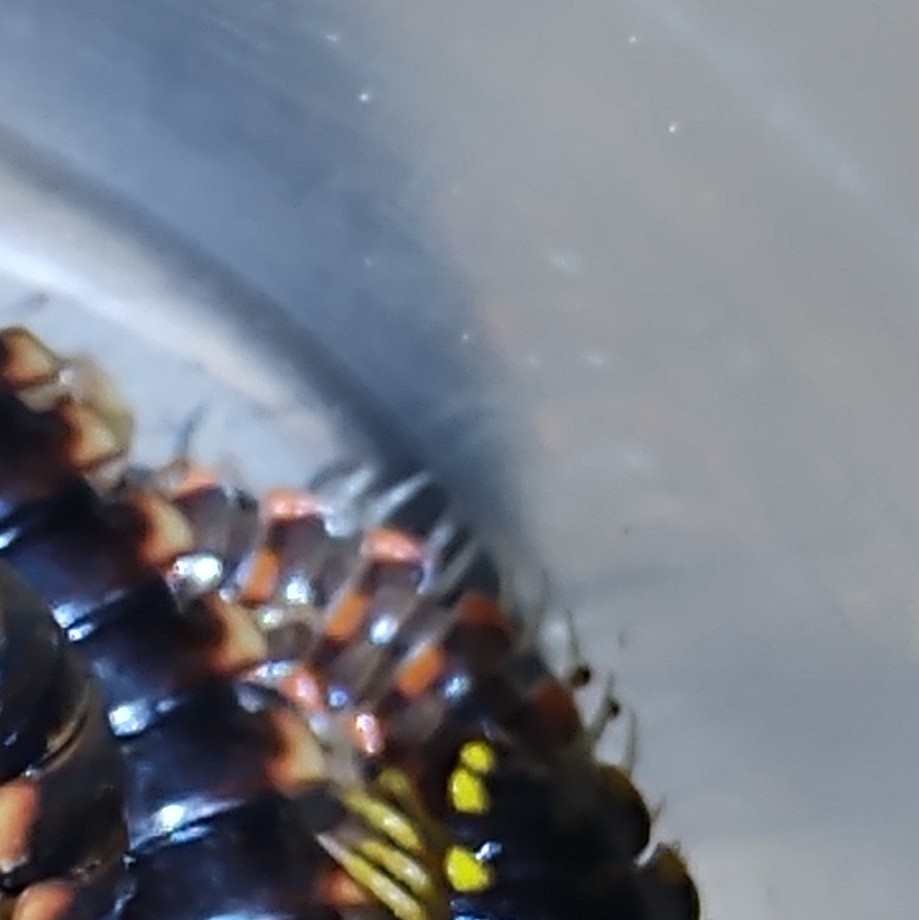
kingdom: Animalia
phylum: Arthropoda
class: Diplopoda
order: Polydesmida
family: Xystodesmidae
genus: Euryurus
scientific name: Euryurus orestes
